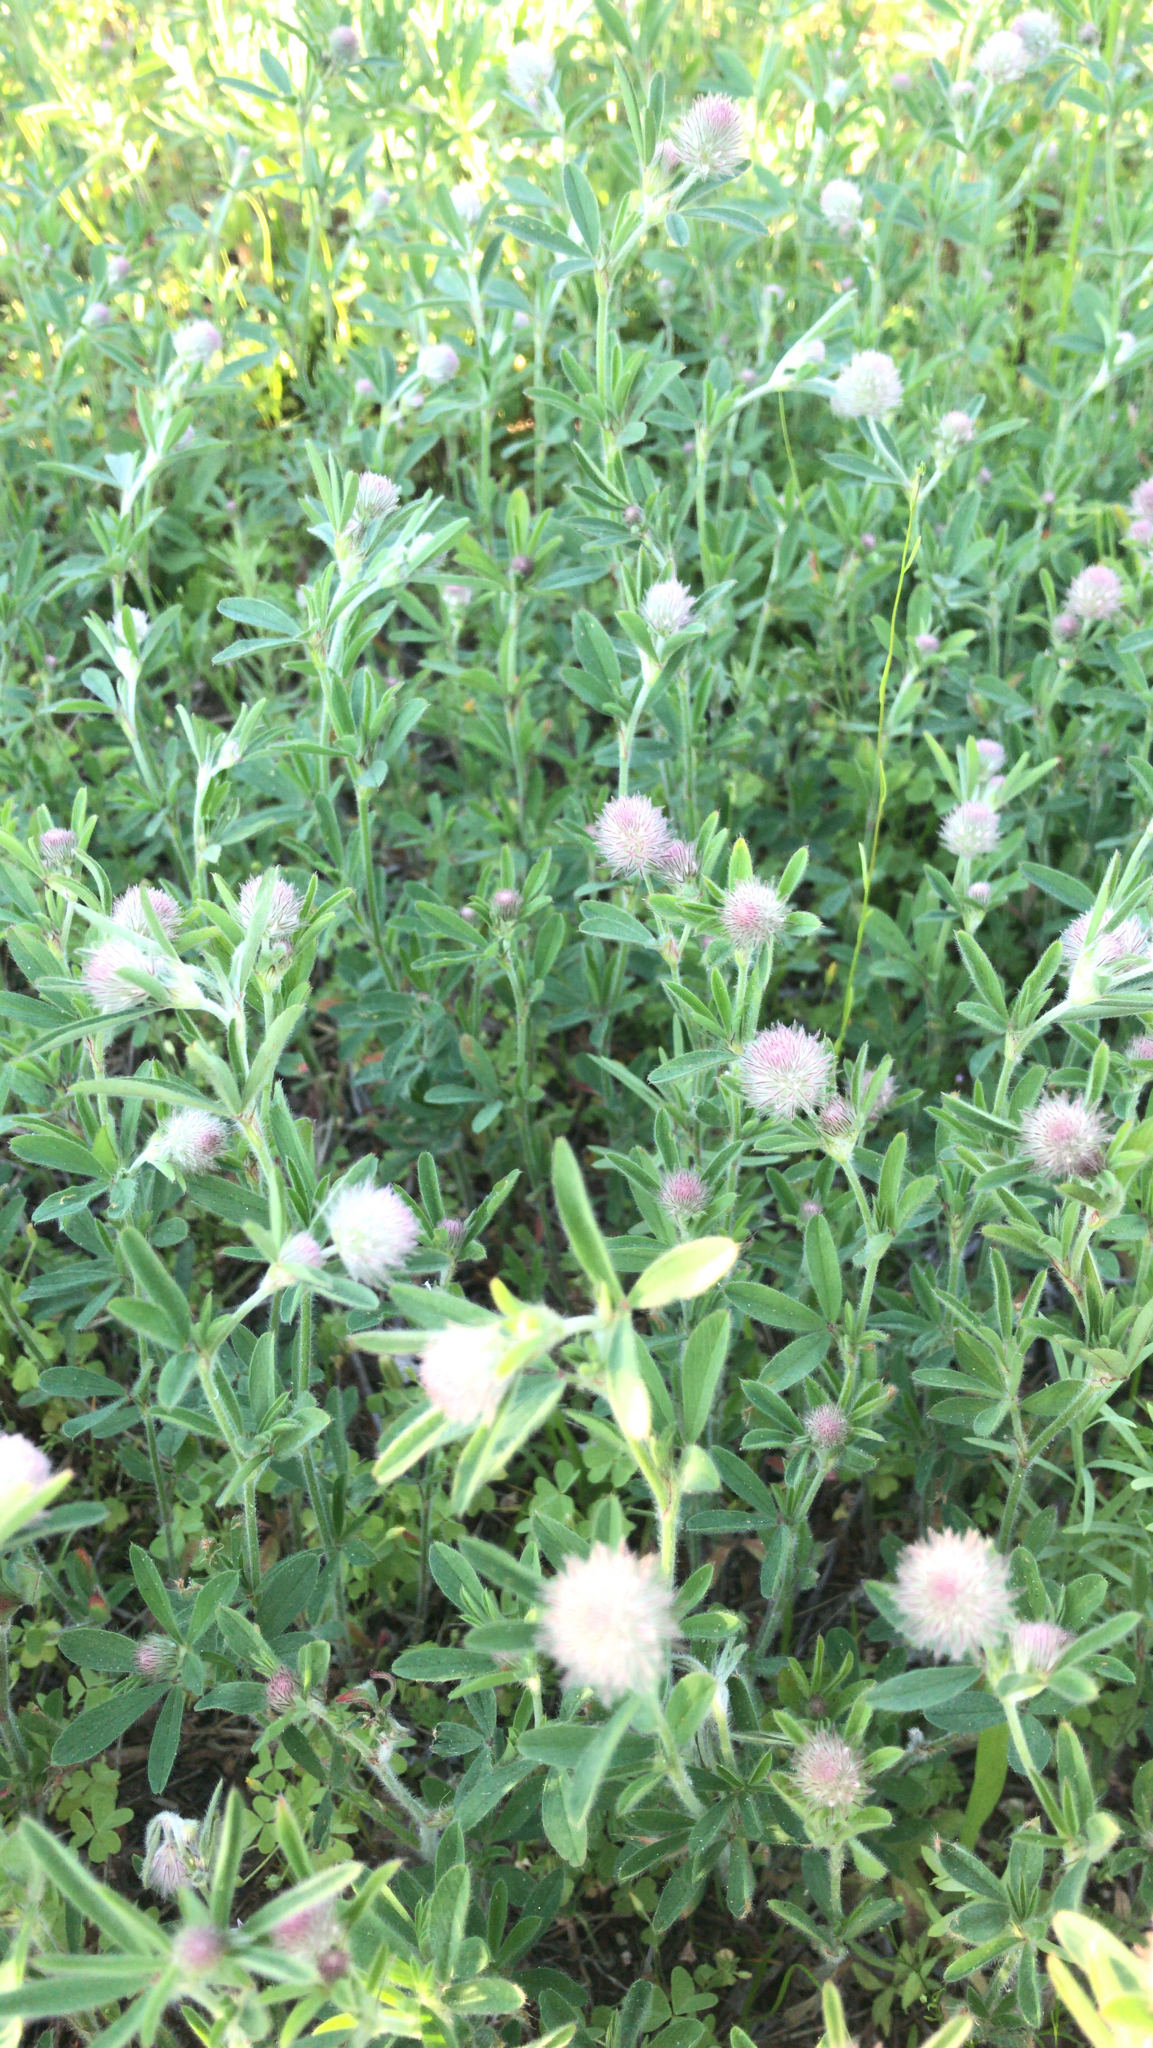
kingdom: Plantae
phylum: Tracheophyta
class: Magnoliopsida
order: Fabales
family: Fabaceae
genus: Trifolium
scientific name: Trifolium arvense
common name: Hare's-foot clover
